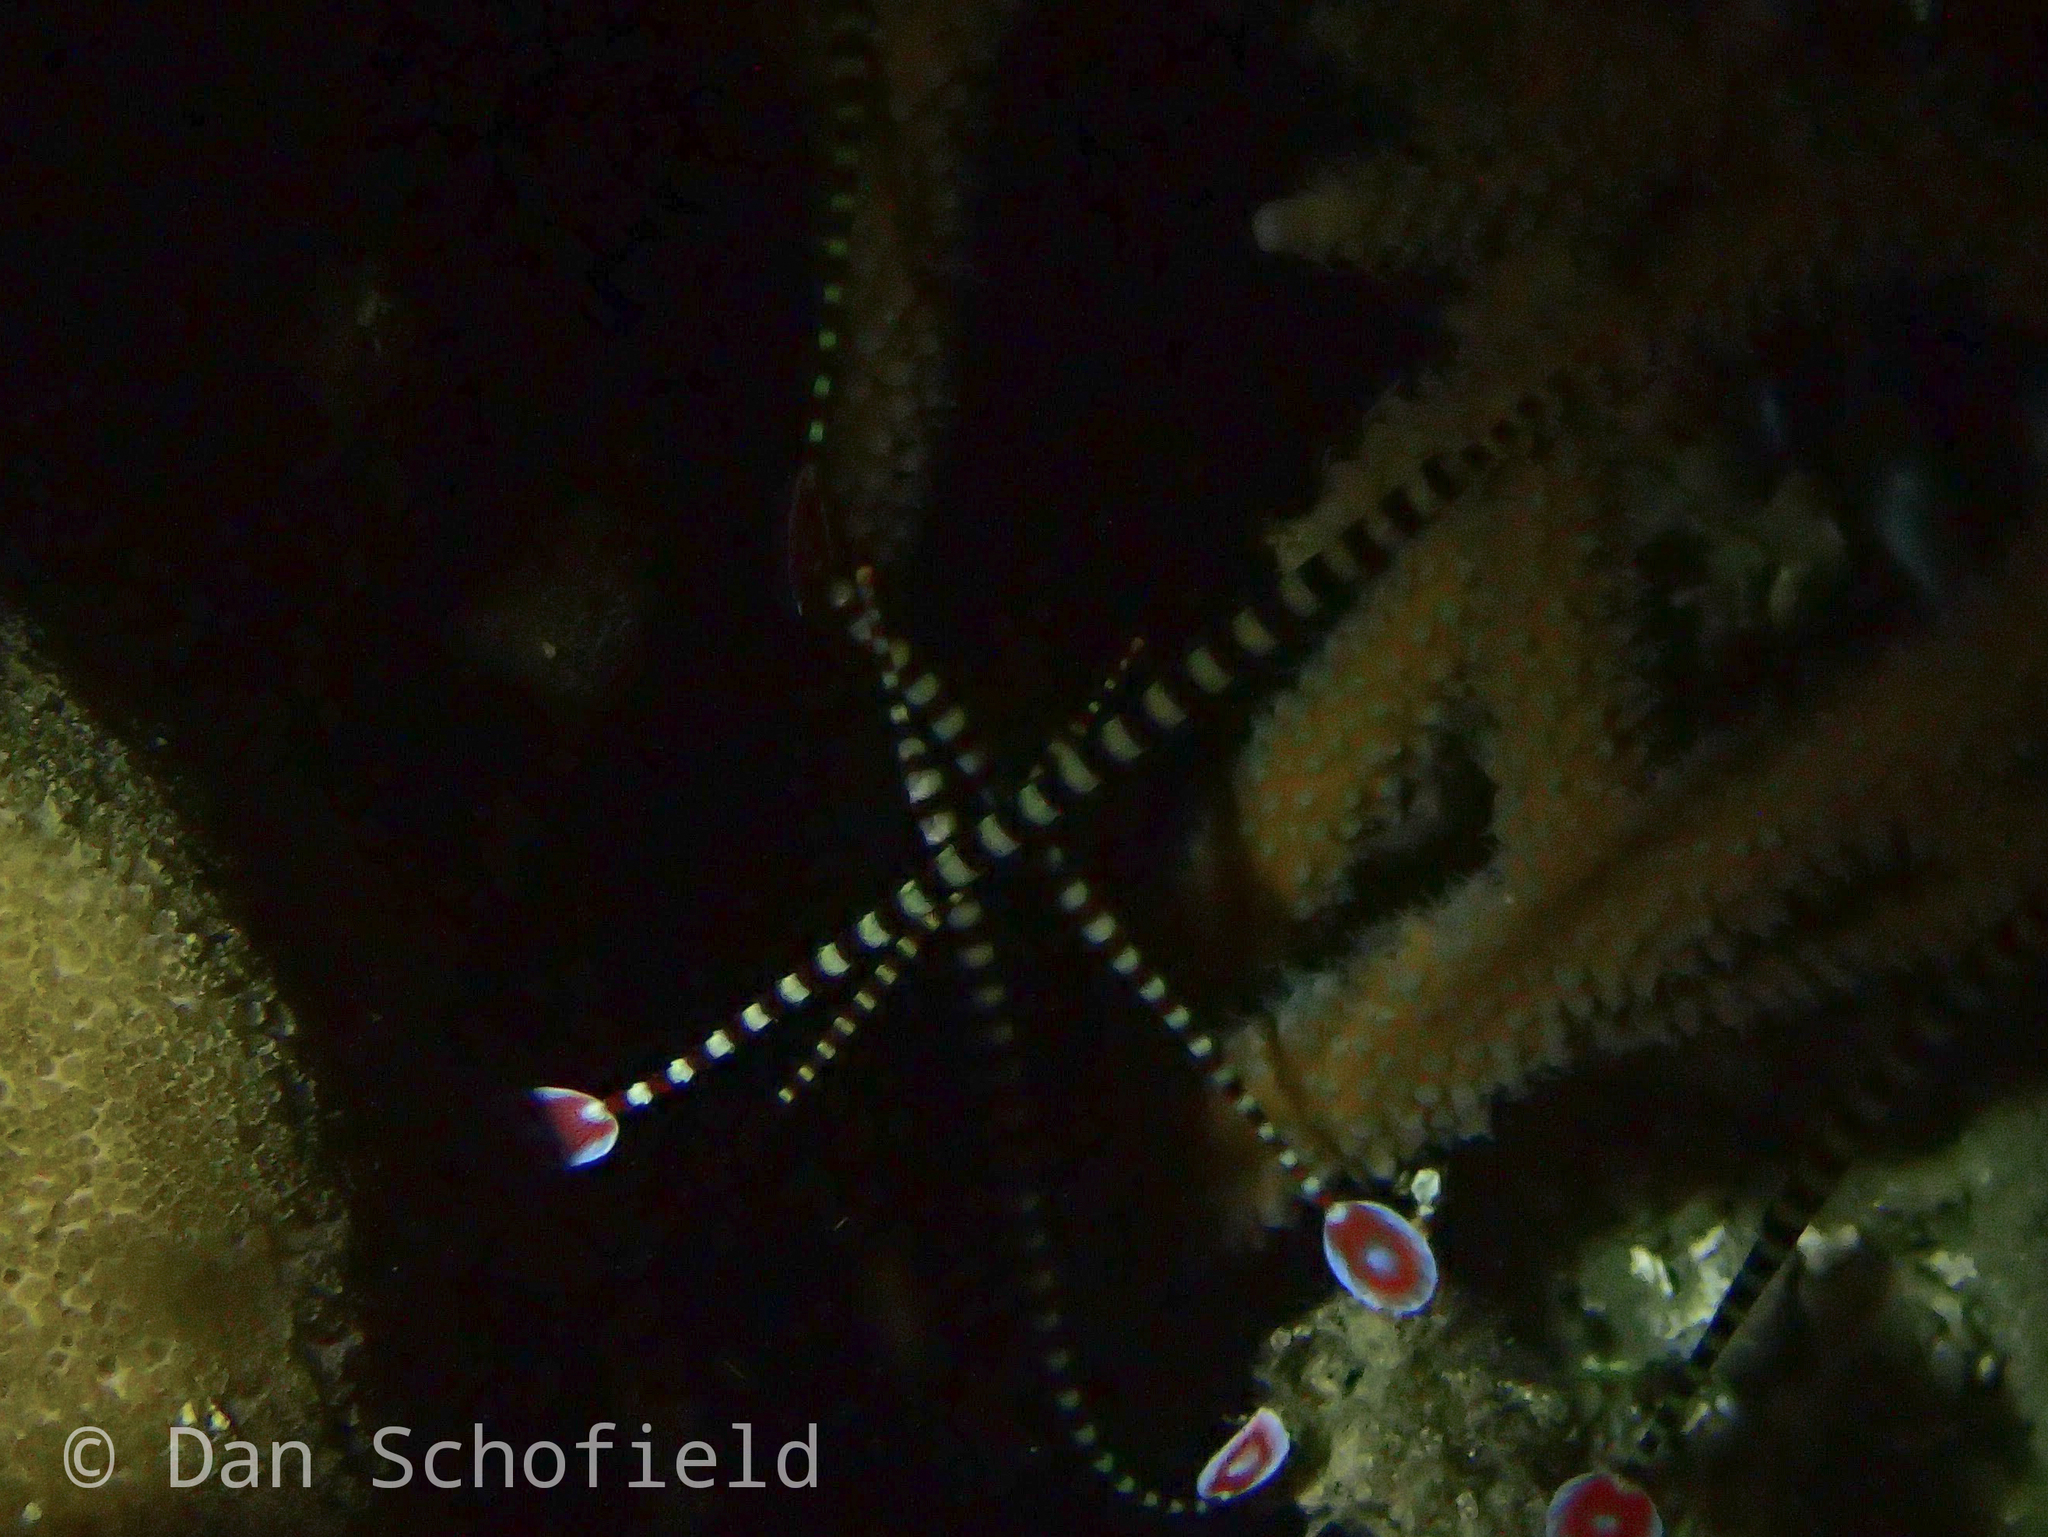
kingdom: Animalia
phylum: Chordata
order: Syngnathiformes
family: Syngnathidae
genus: Dunckerocampus
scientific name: Dunckerocampus dactyliophorus
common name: Banded pipefish
